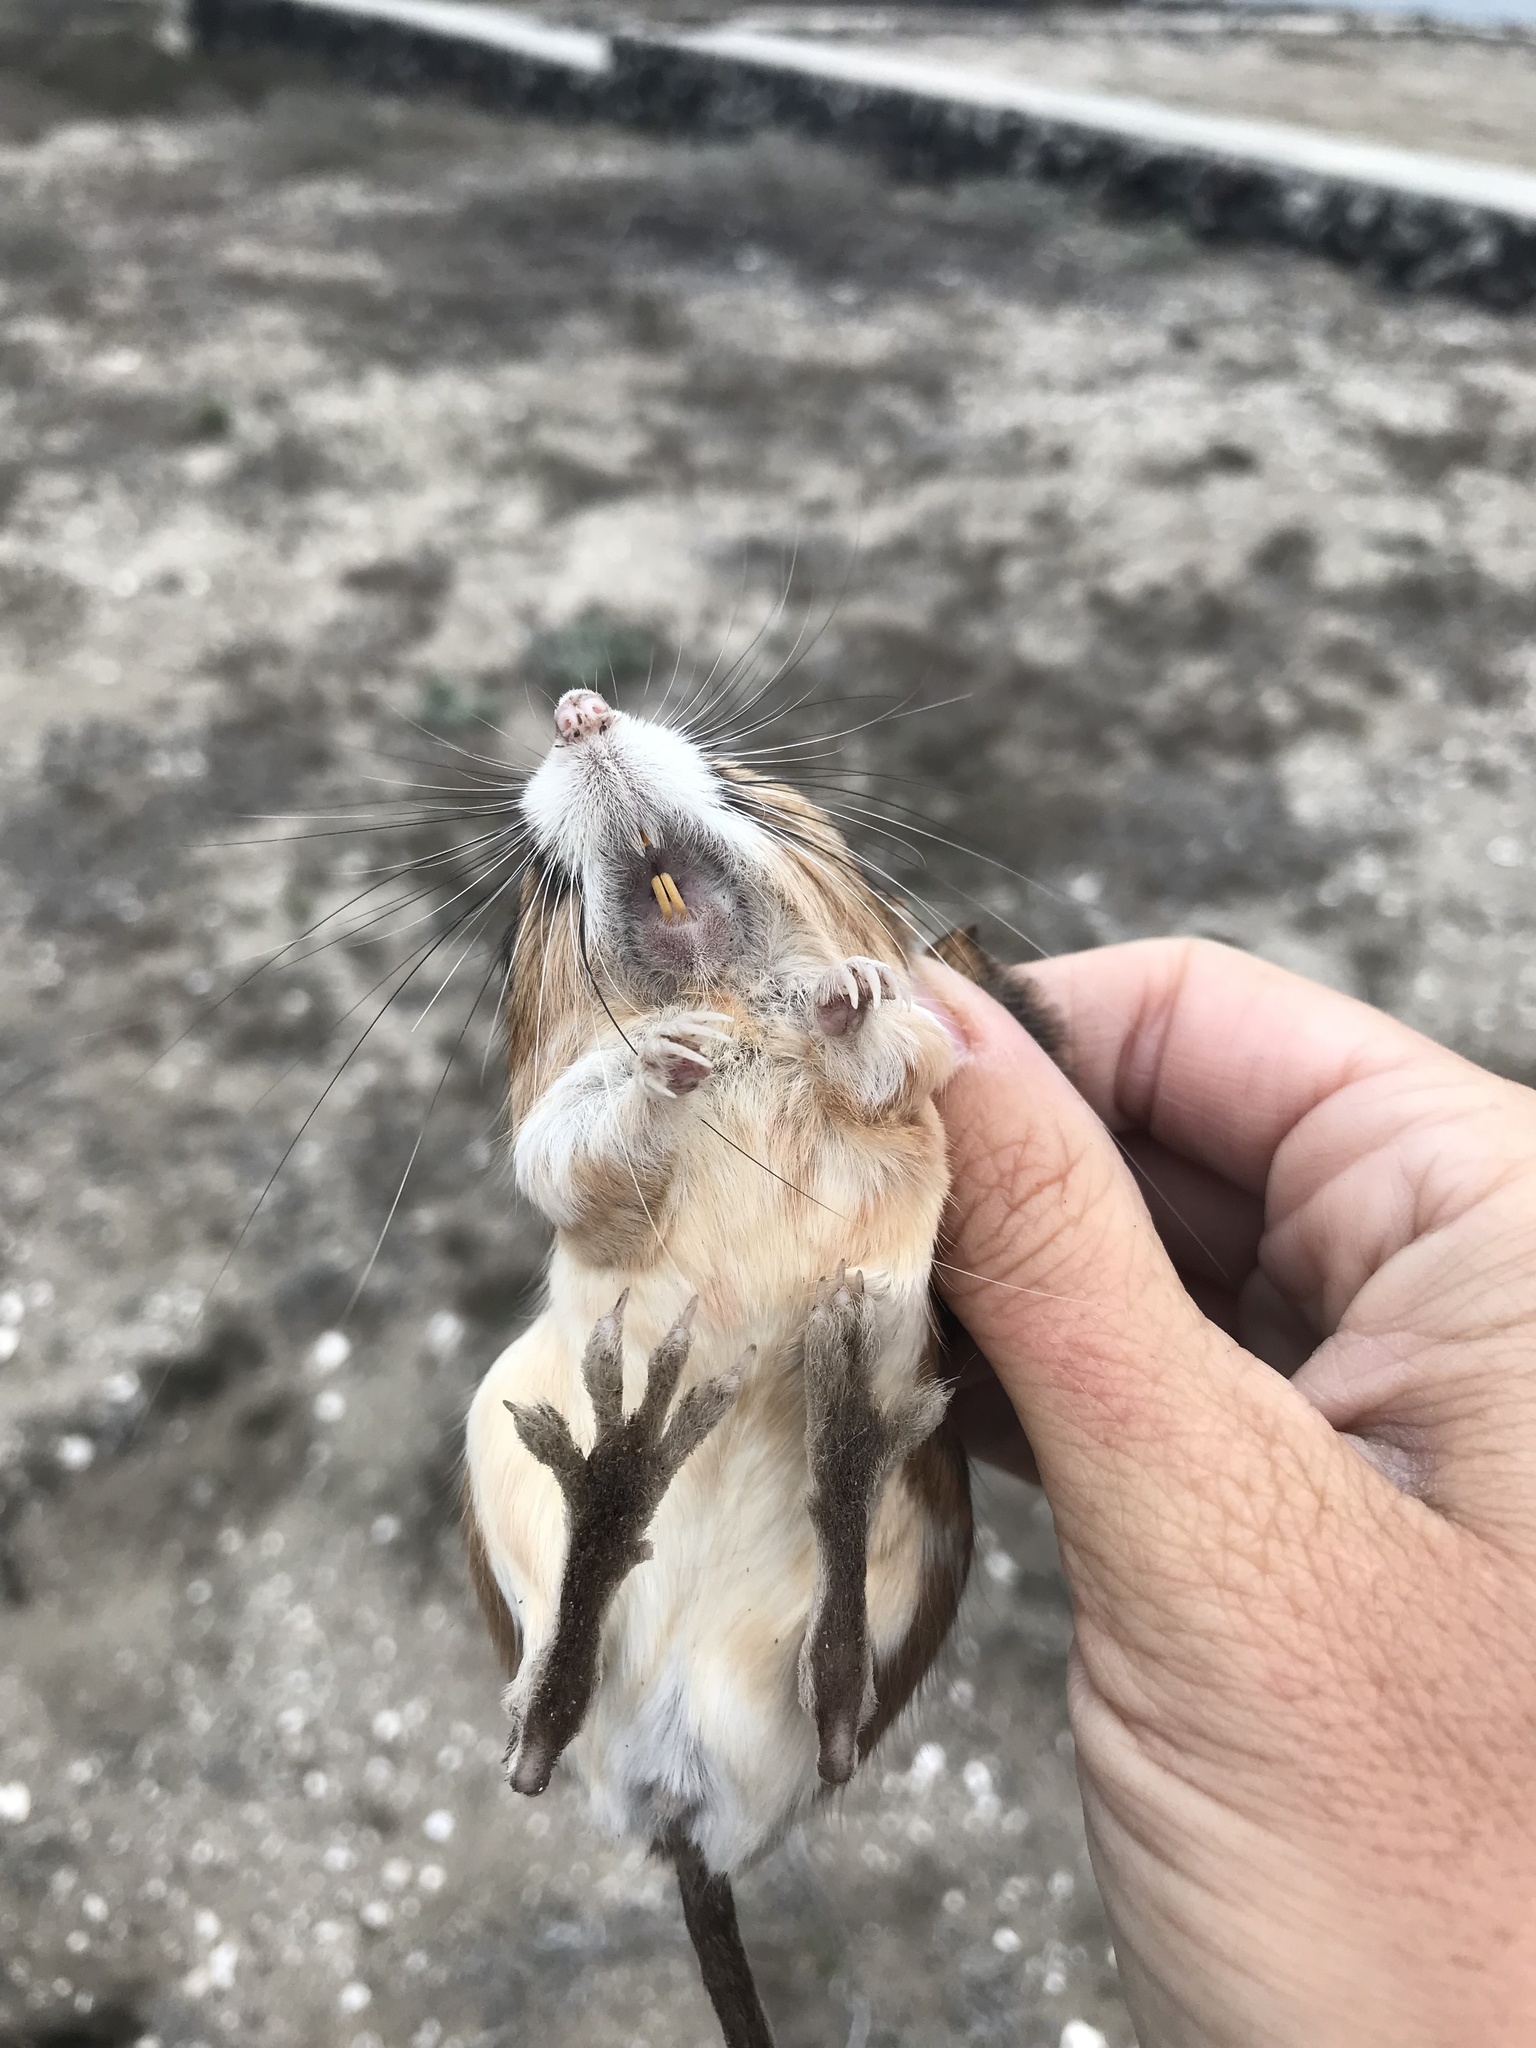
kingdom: Animalia
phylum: Chordata
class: Mammalia
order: Rodentia
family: Heteromyidae
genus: Dipodomys
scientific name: Dipodomys simulans
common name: Dulzura kangaroo rat
